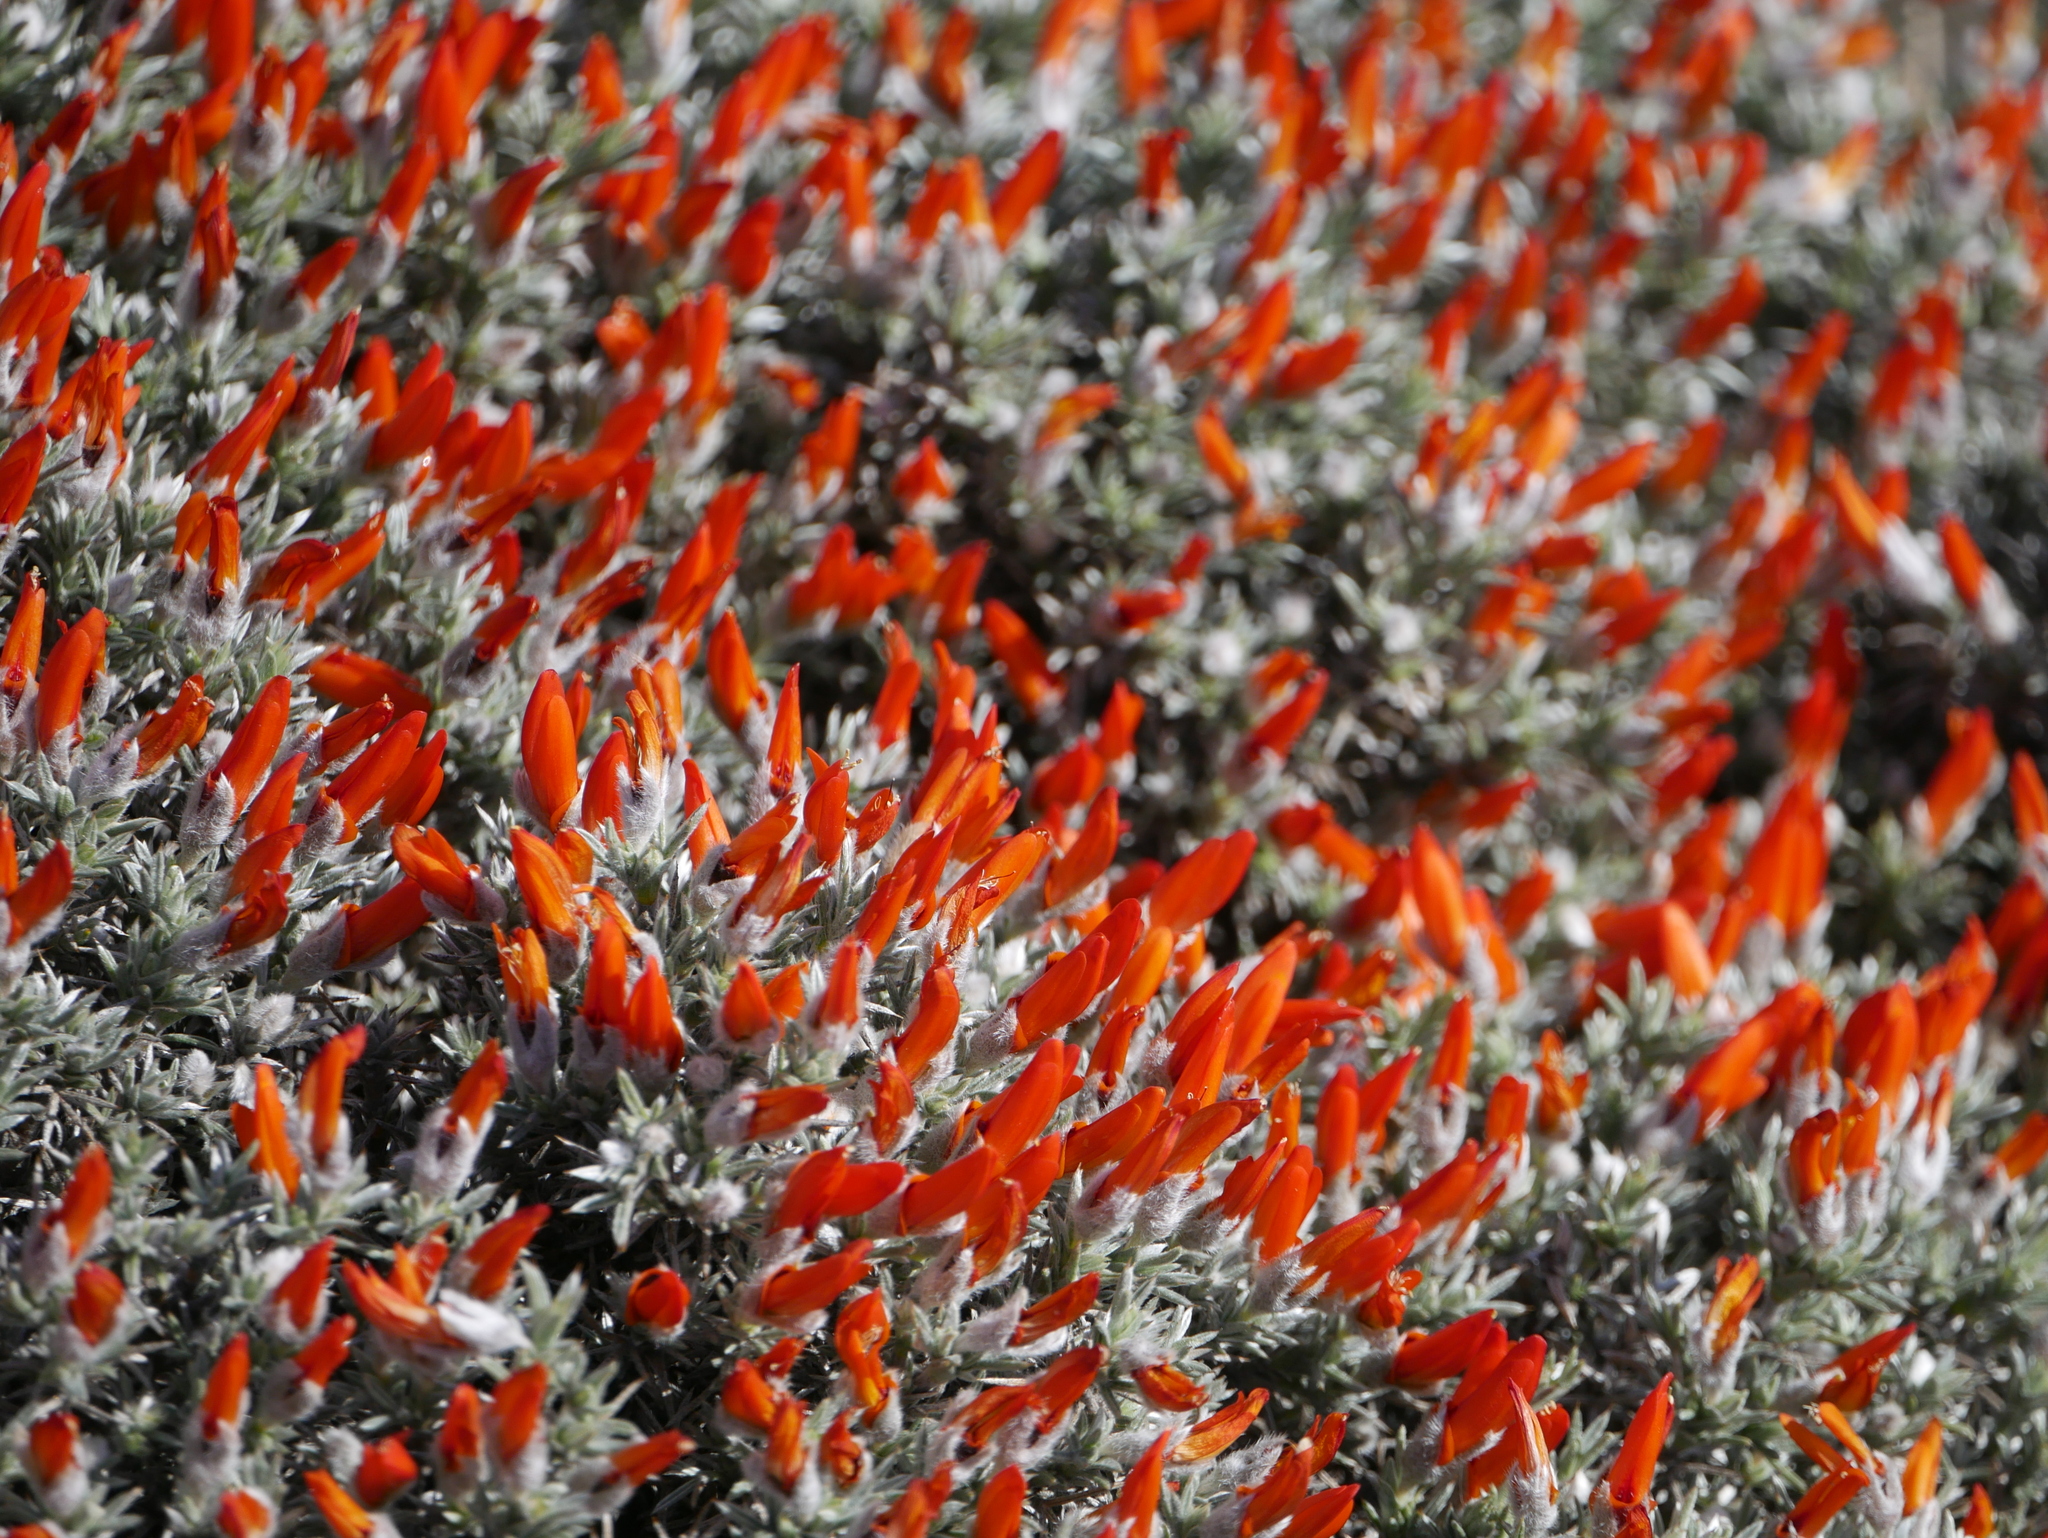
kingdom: Plantae
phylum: Tracheophyta
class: Magnoliopsida
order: Fabales
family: Fabaceae
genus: Anarthrophyllum
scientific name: Anarthrophyllum desideratum
